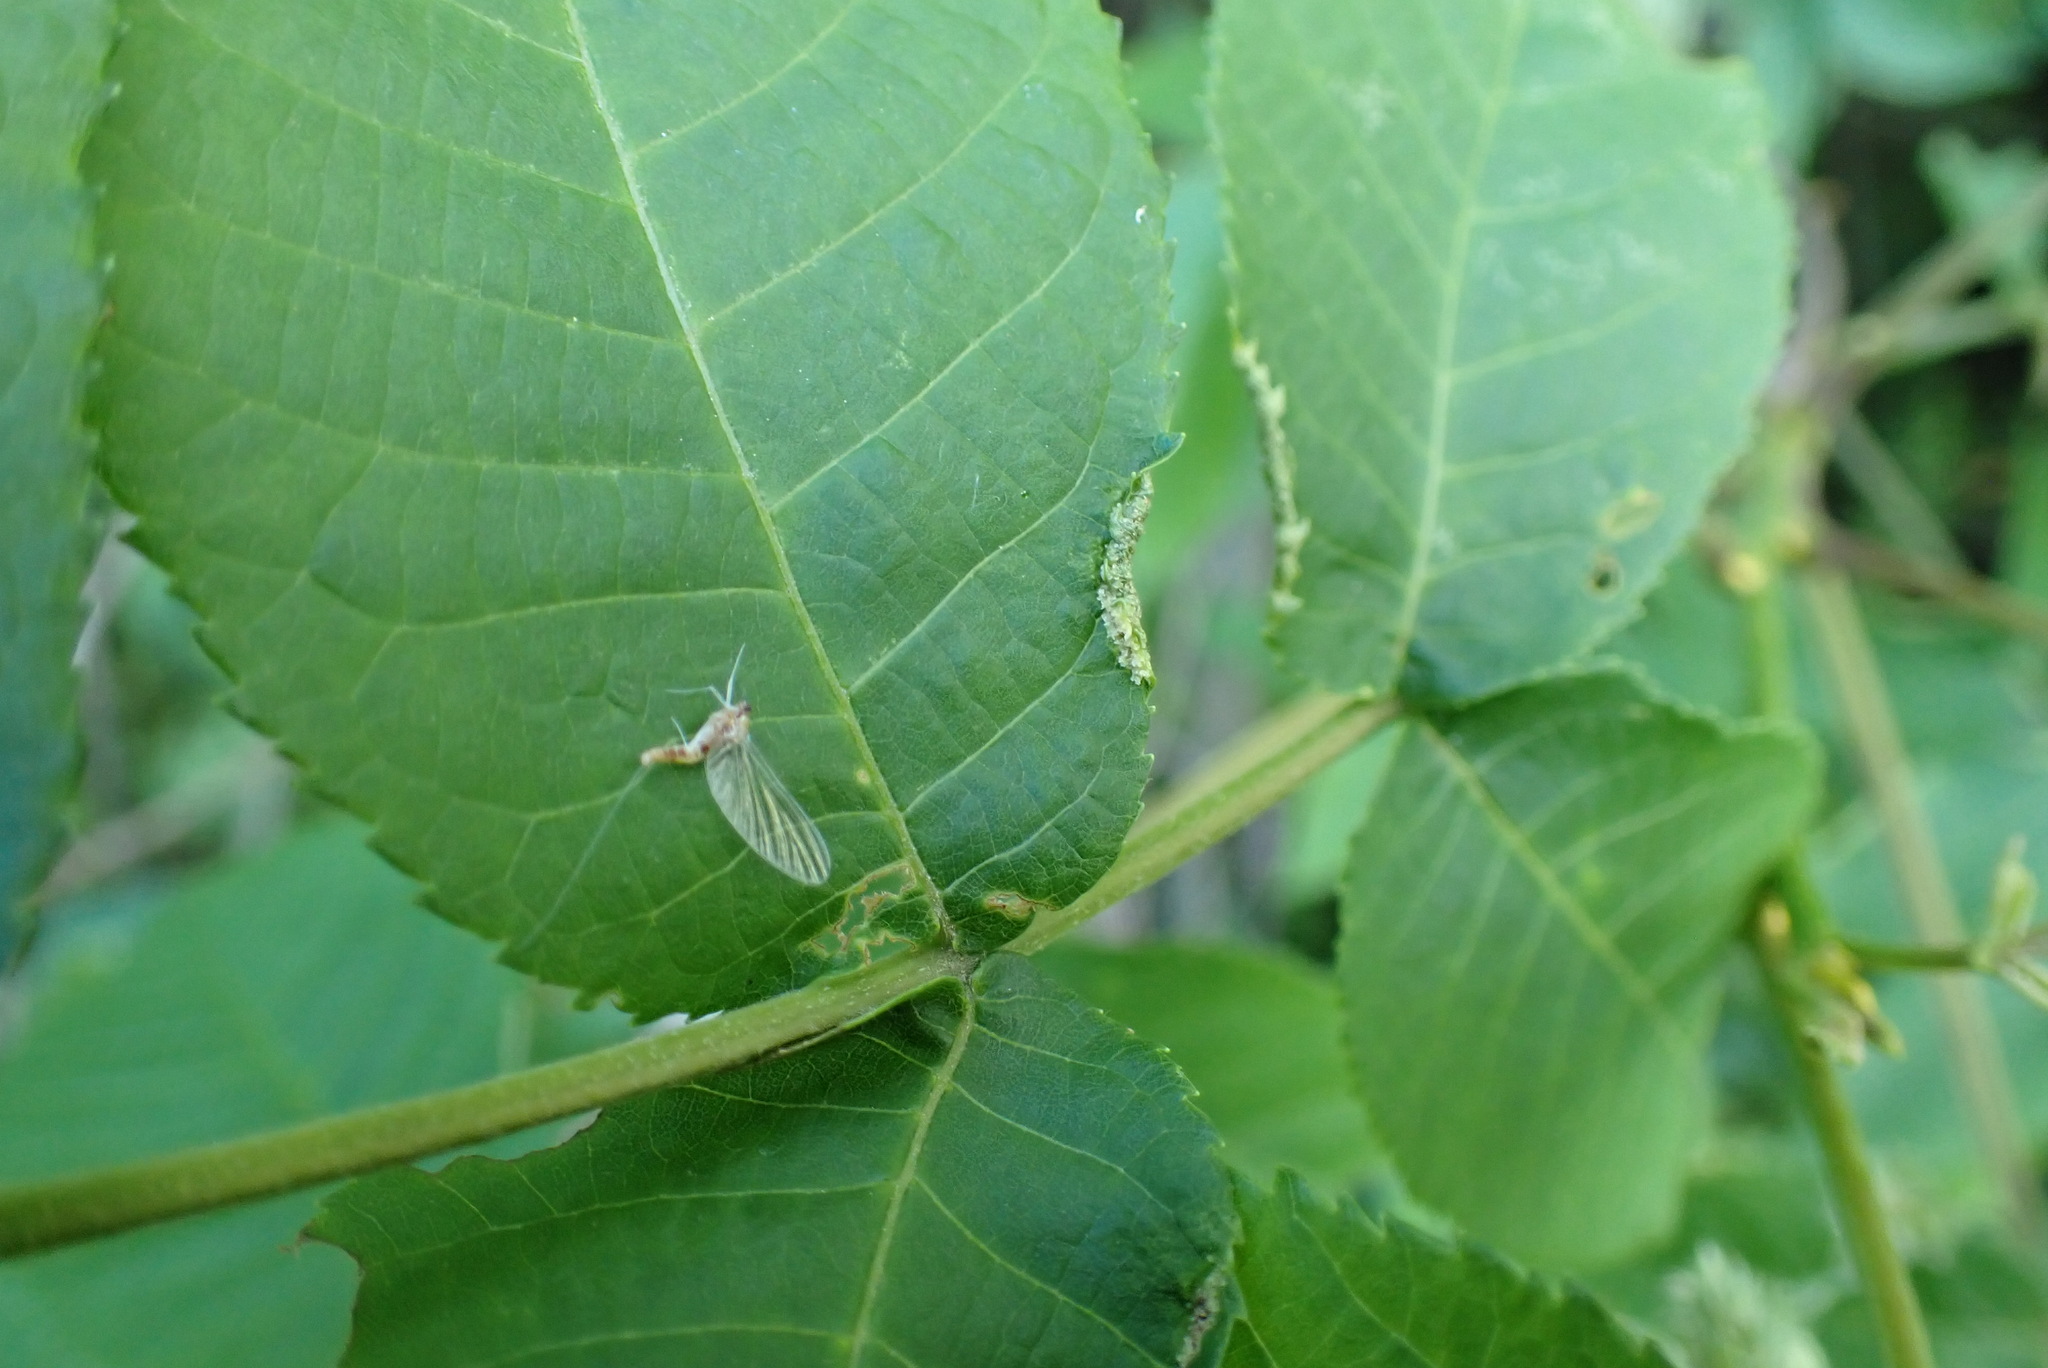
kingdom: Animalia
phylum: Arthropoda
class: Arachnida
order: Trombidiformes
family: Eriophyidae
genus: Aceria
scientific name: Aceria carlinae
